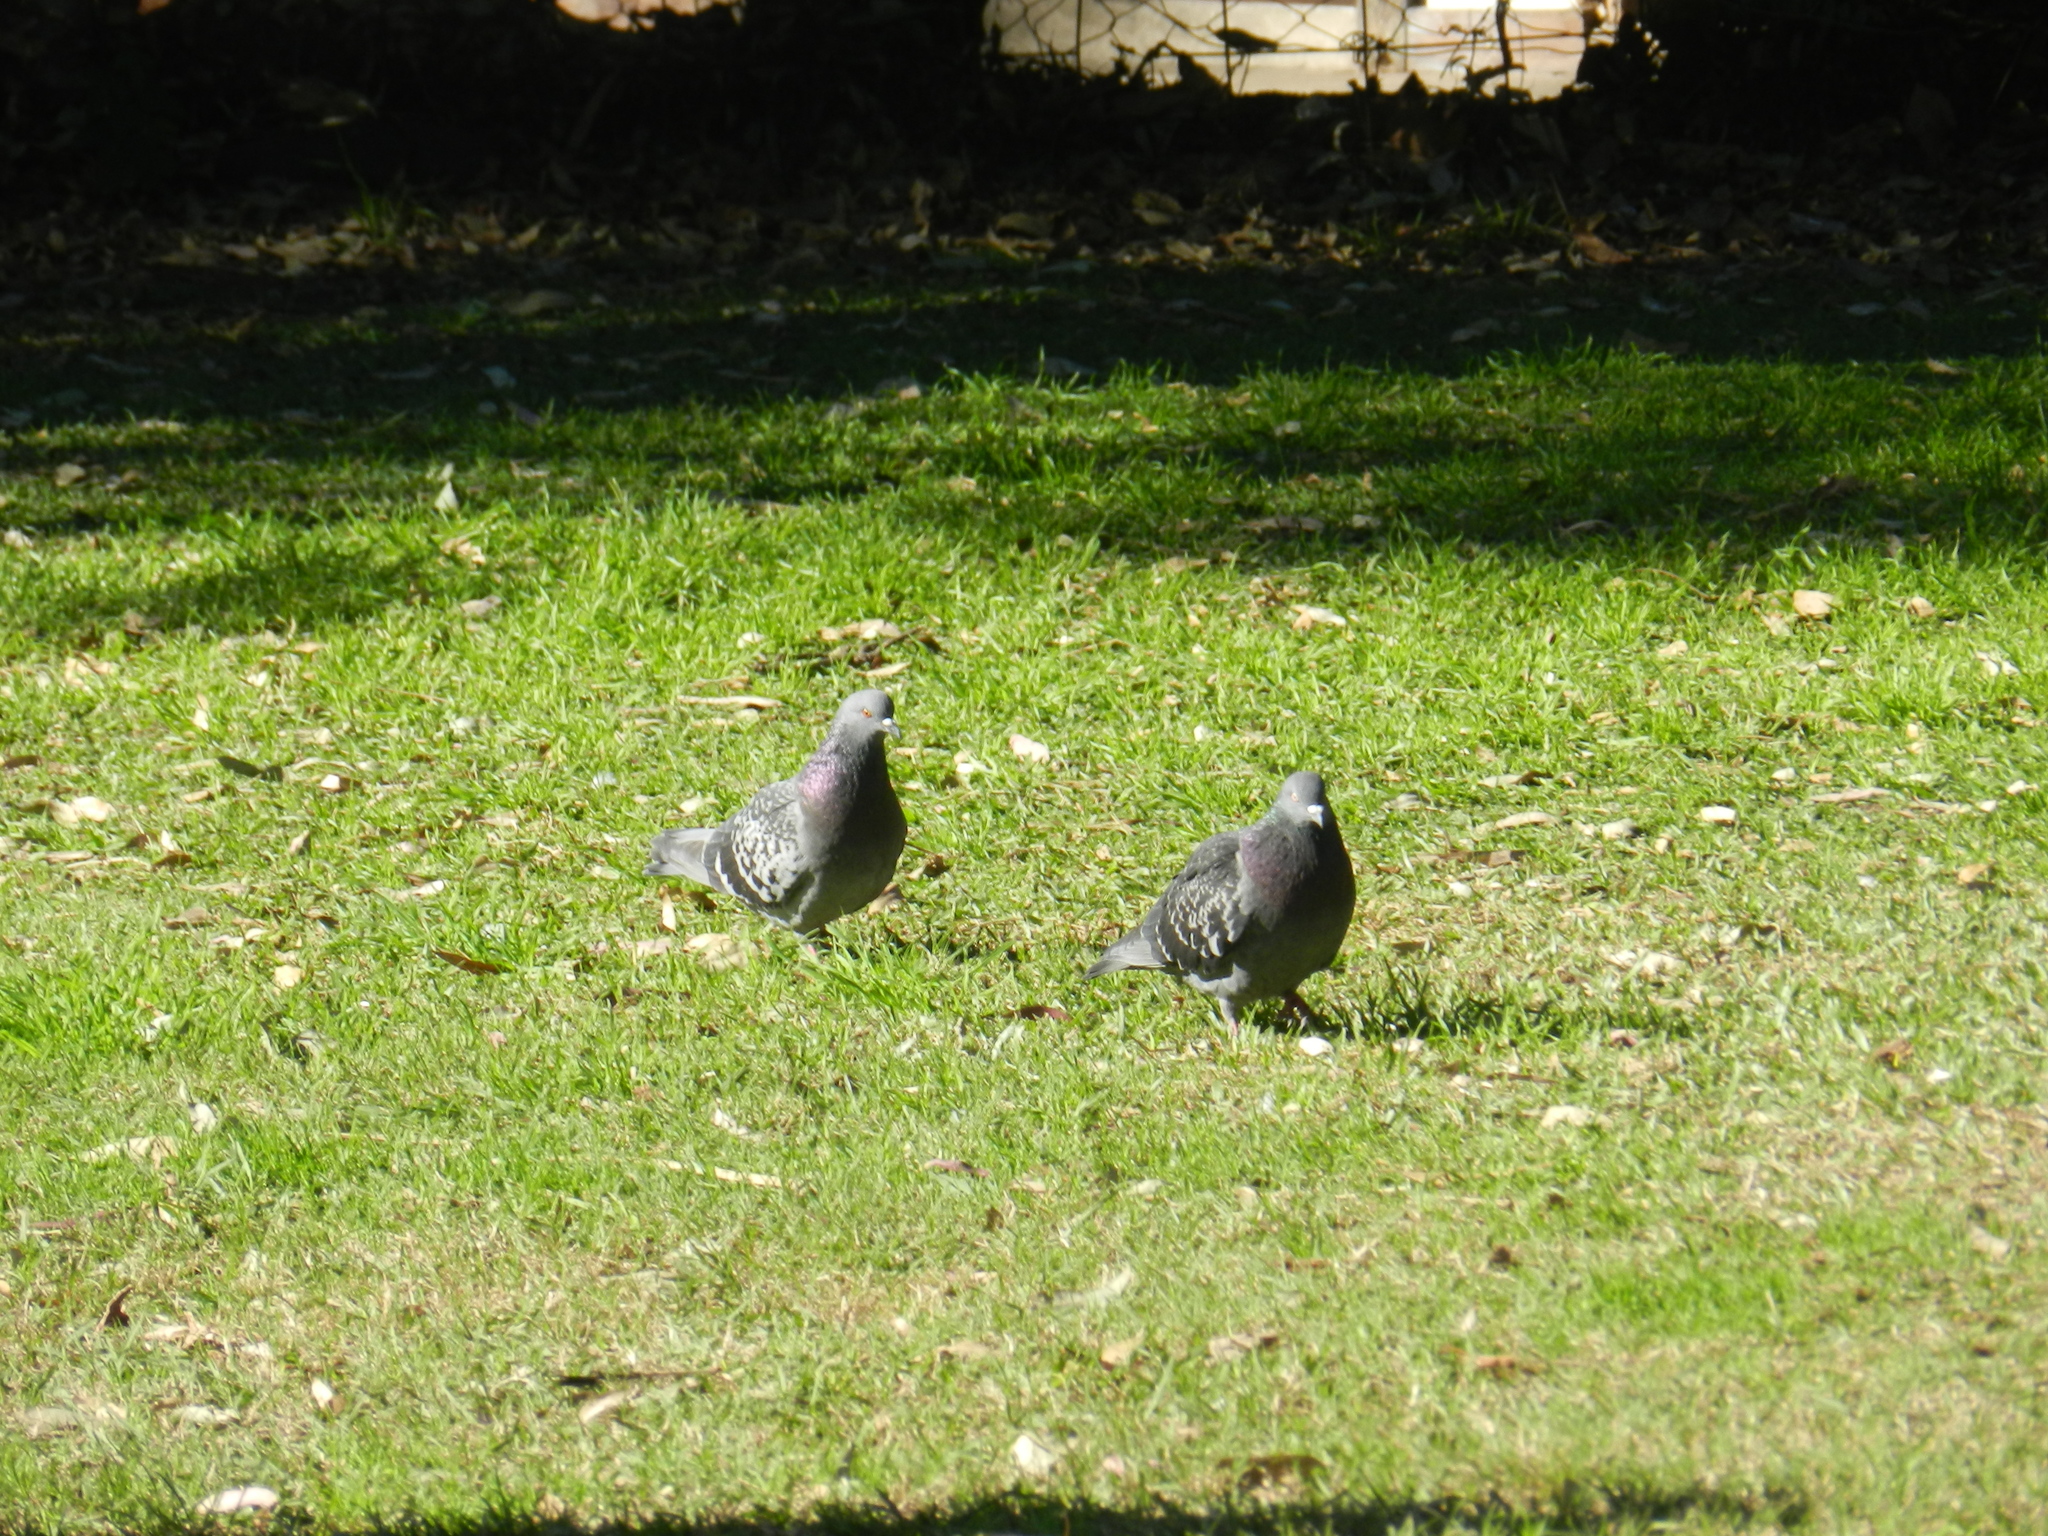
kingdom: Animalia
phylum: Chordata
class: Aves
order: Columbiformes
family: Columbidae
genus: Columba
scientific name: Columba livia
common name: Rock pigeon
